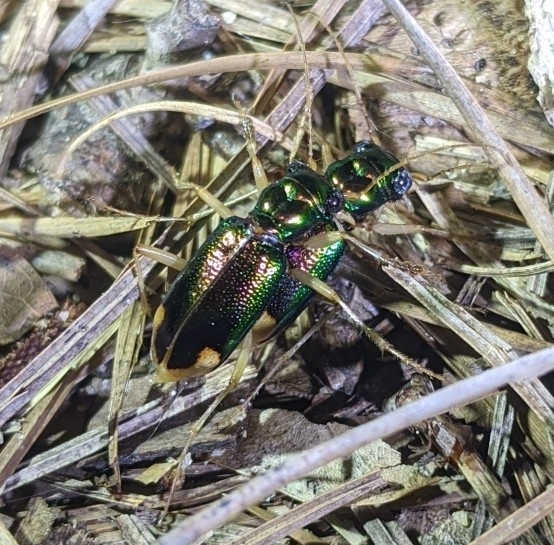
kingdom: Animalia
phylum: Arthropoda
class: Insecta
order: Coleoptera
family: Carabidae
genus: Tetracha
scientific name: Tetracha carolina
